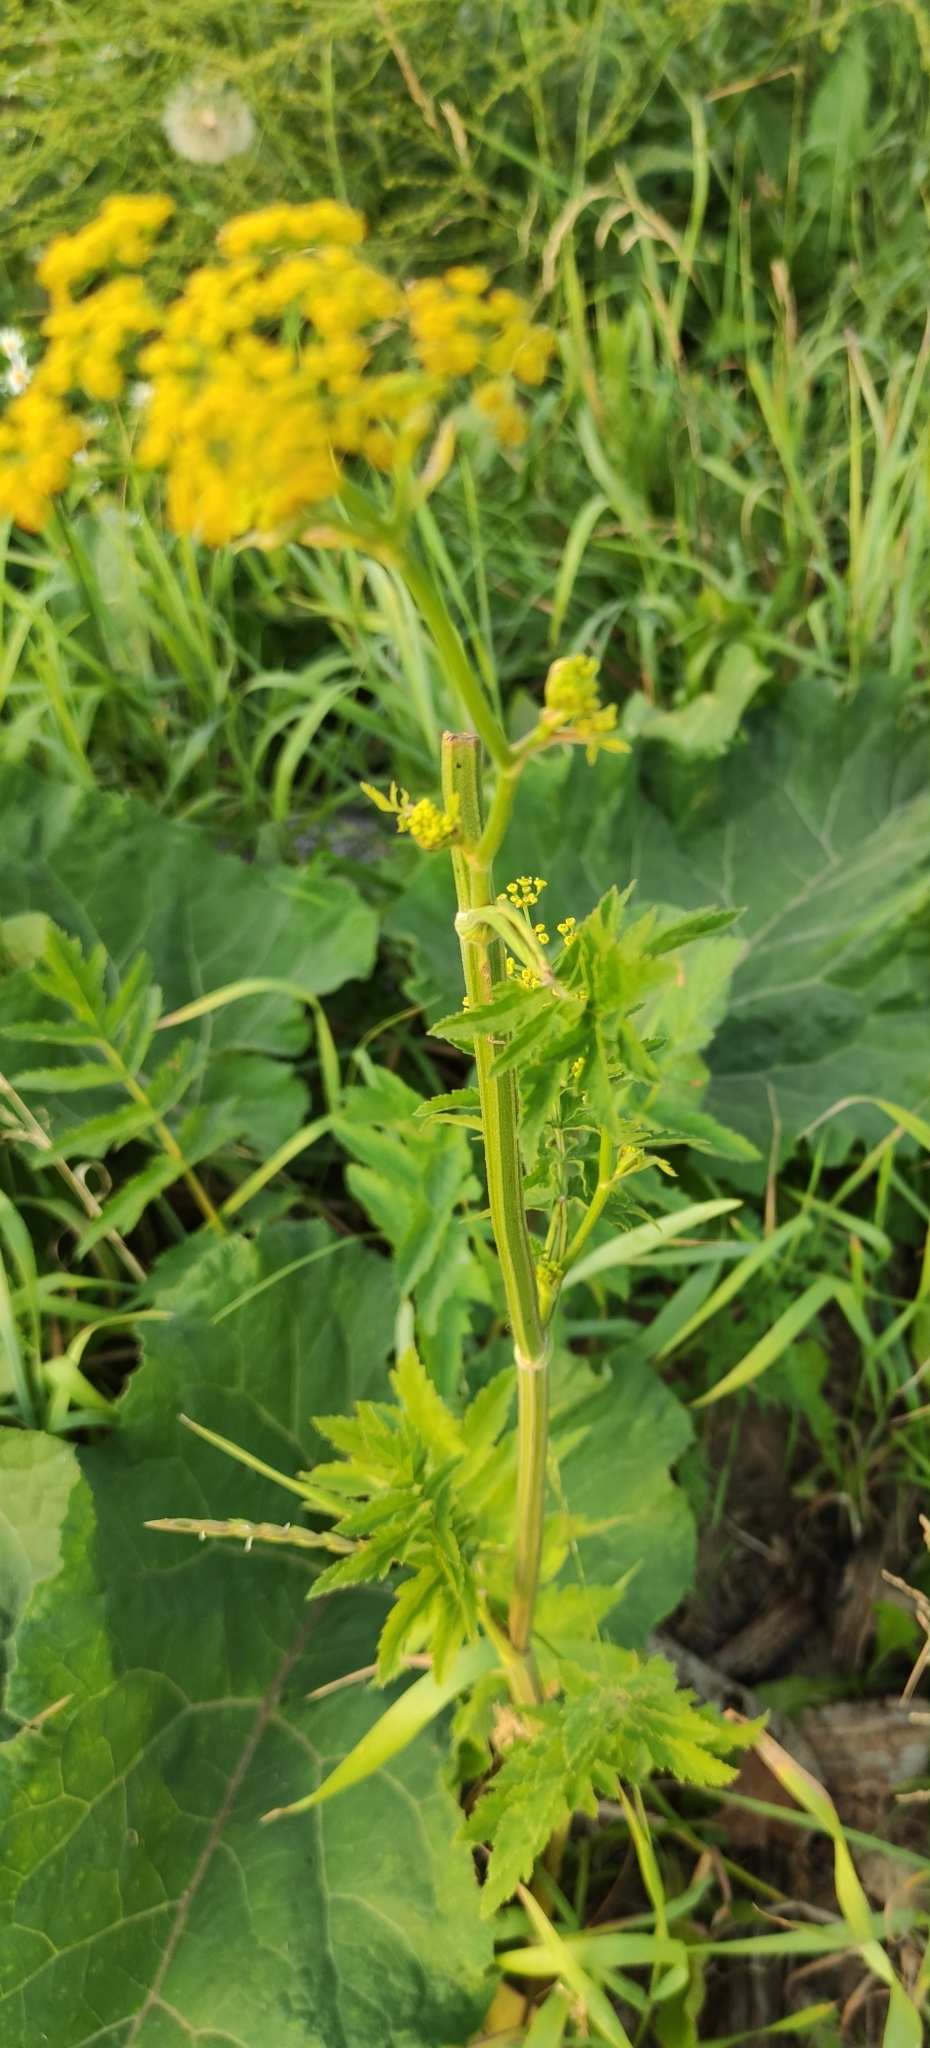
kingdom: Plantae
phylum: Tracheophyta
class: Magnoliopsida
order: Apiales
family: Apiaceae
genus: Pastinaca
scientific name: Pastinaca sativa
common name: Wild parsnip
